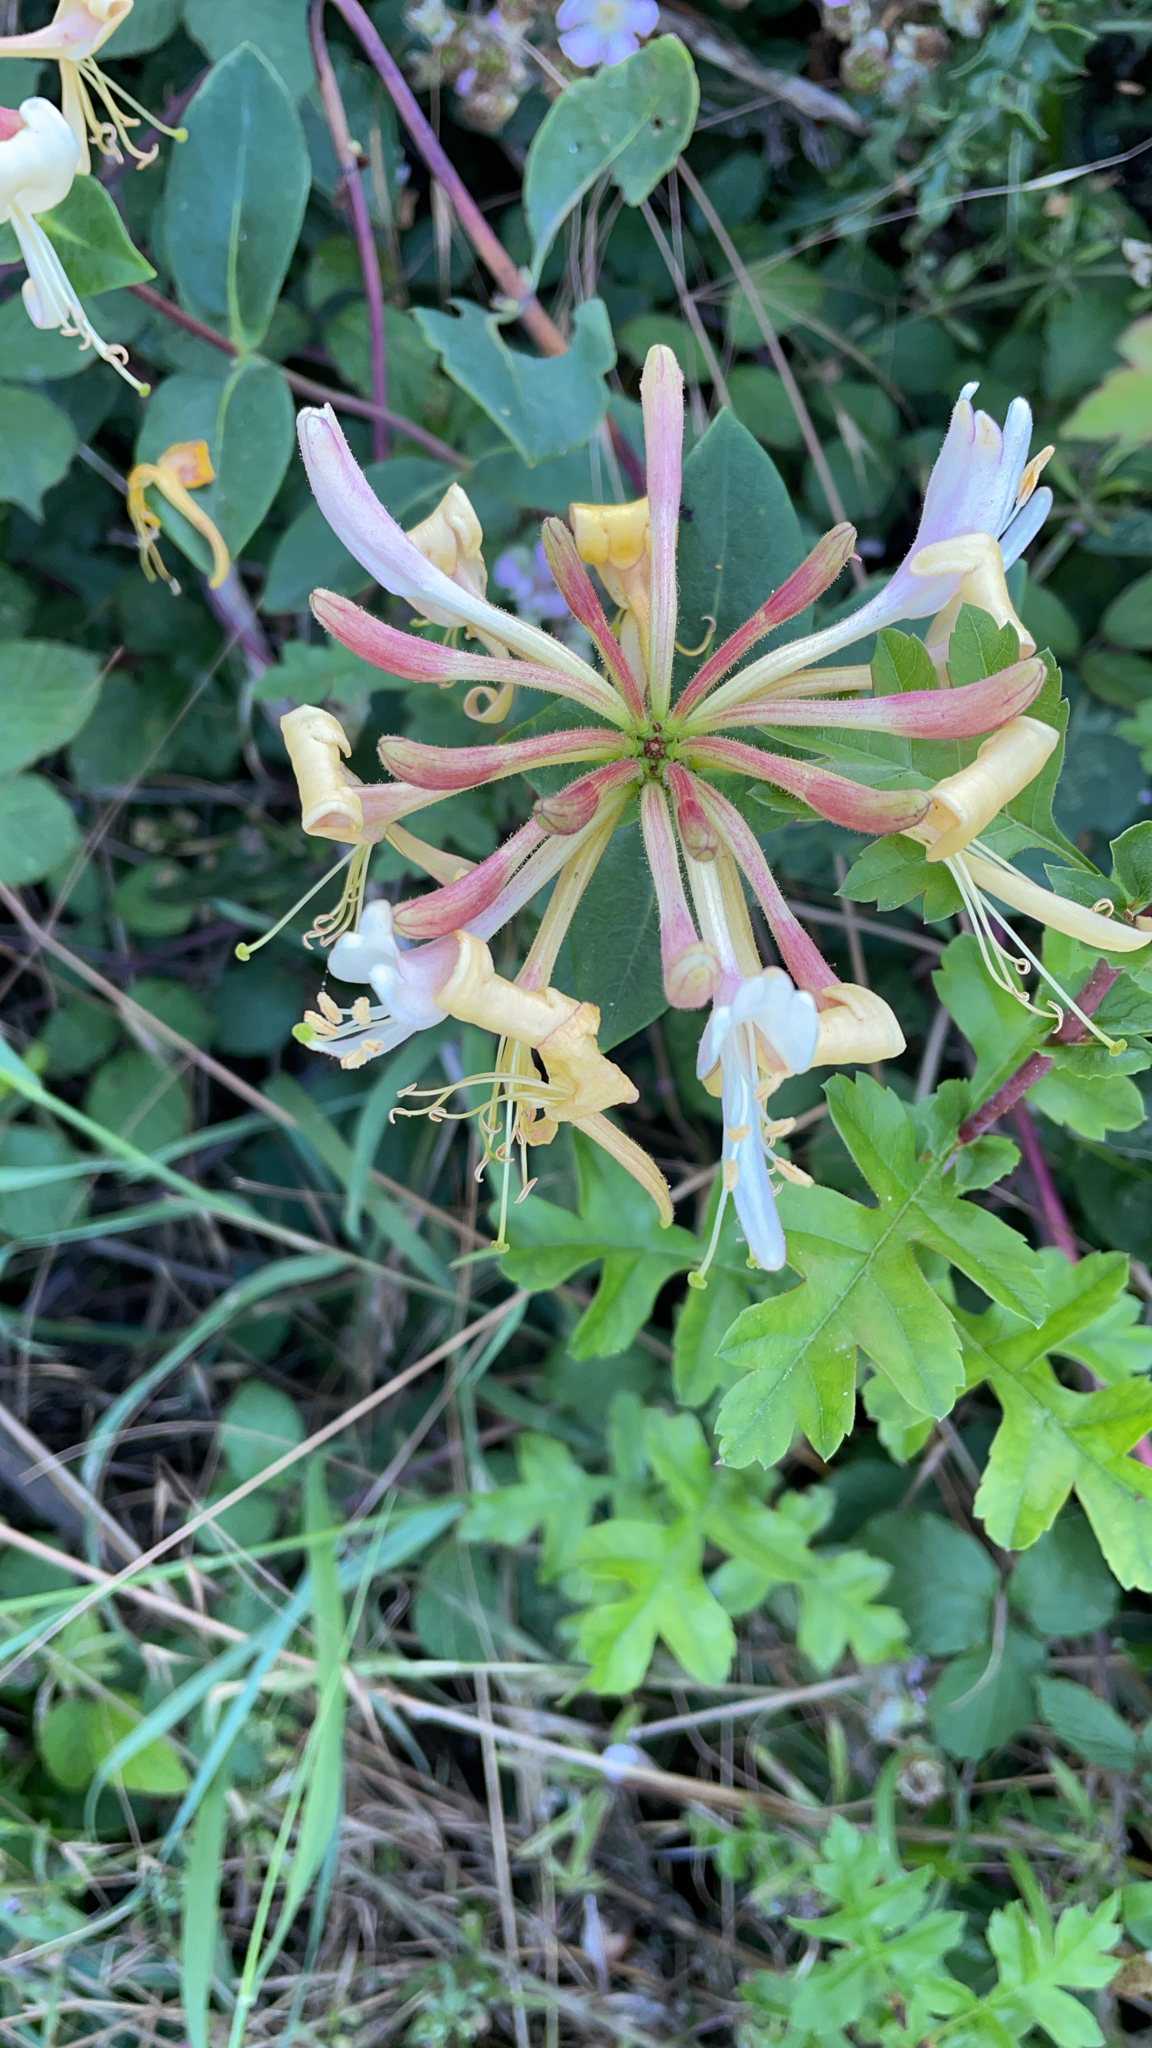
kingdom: Plantae
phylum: Tracheophyta
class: Magnoliopsida
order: Dipsacales
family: Caprifoliaceae
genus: Lonicera
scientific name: Lonicera periclymenum
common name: European honeysuckle
